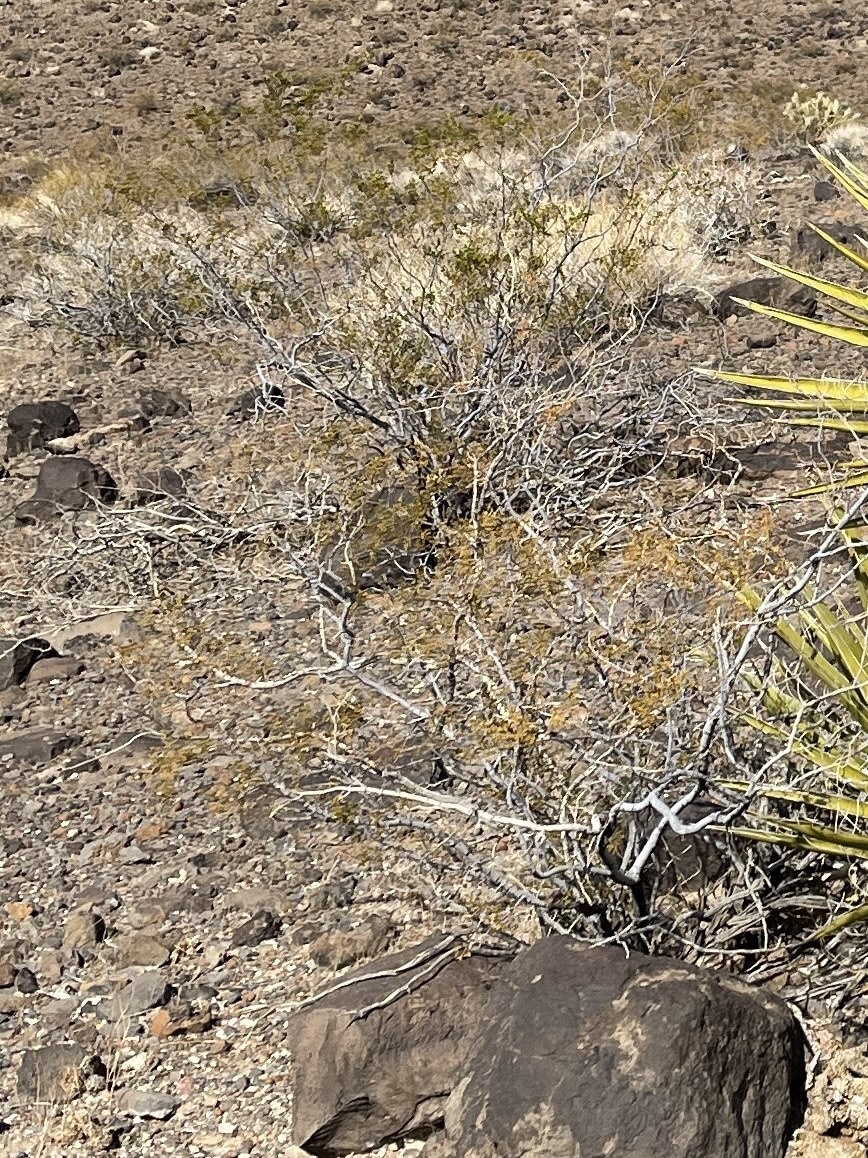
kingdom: Plantae
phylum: Tracheophyta
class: Magnoliopsida
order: Zygophyllales
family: Zygophyllaceae
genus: Larrea
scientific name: Larrea tridentata
